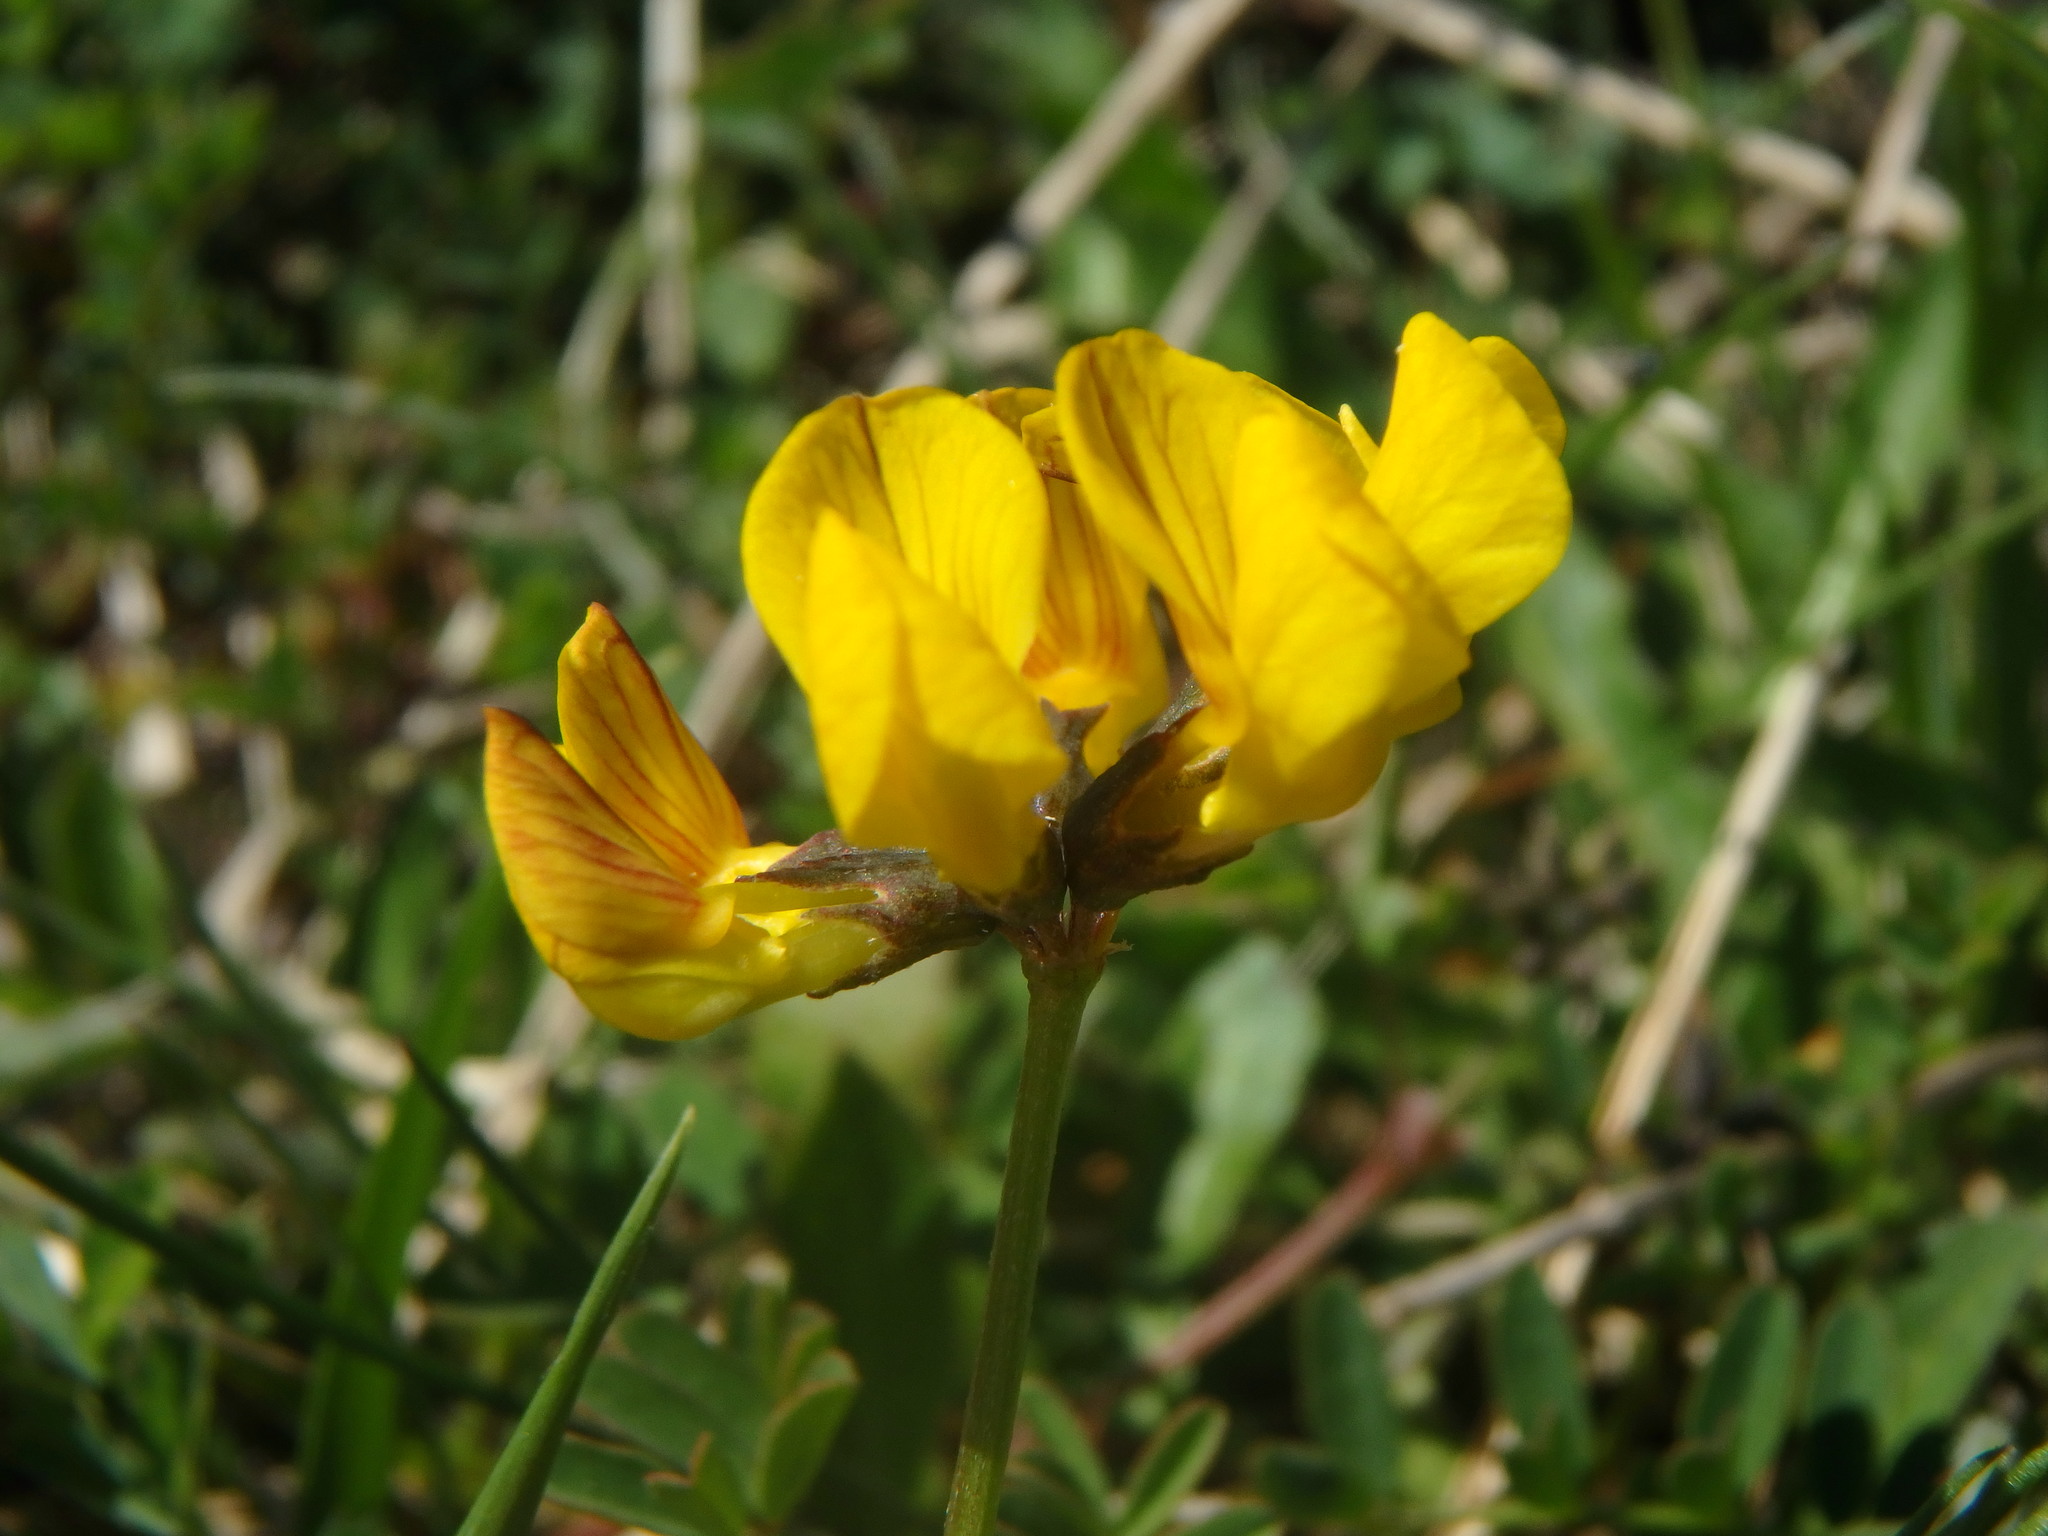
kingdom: Plantae
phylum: Tracheophyta
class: Magnoliopsida
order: Fabales
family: Fabaceae
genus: Hippocrepis
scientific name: Hippocrepis comosa
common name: Horseshoe vetch
